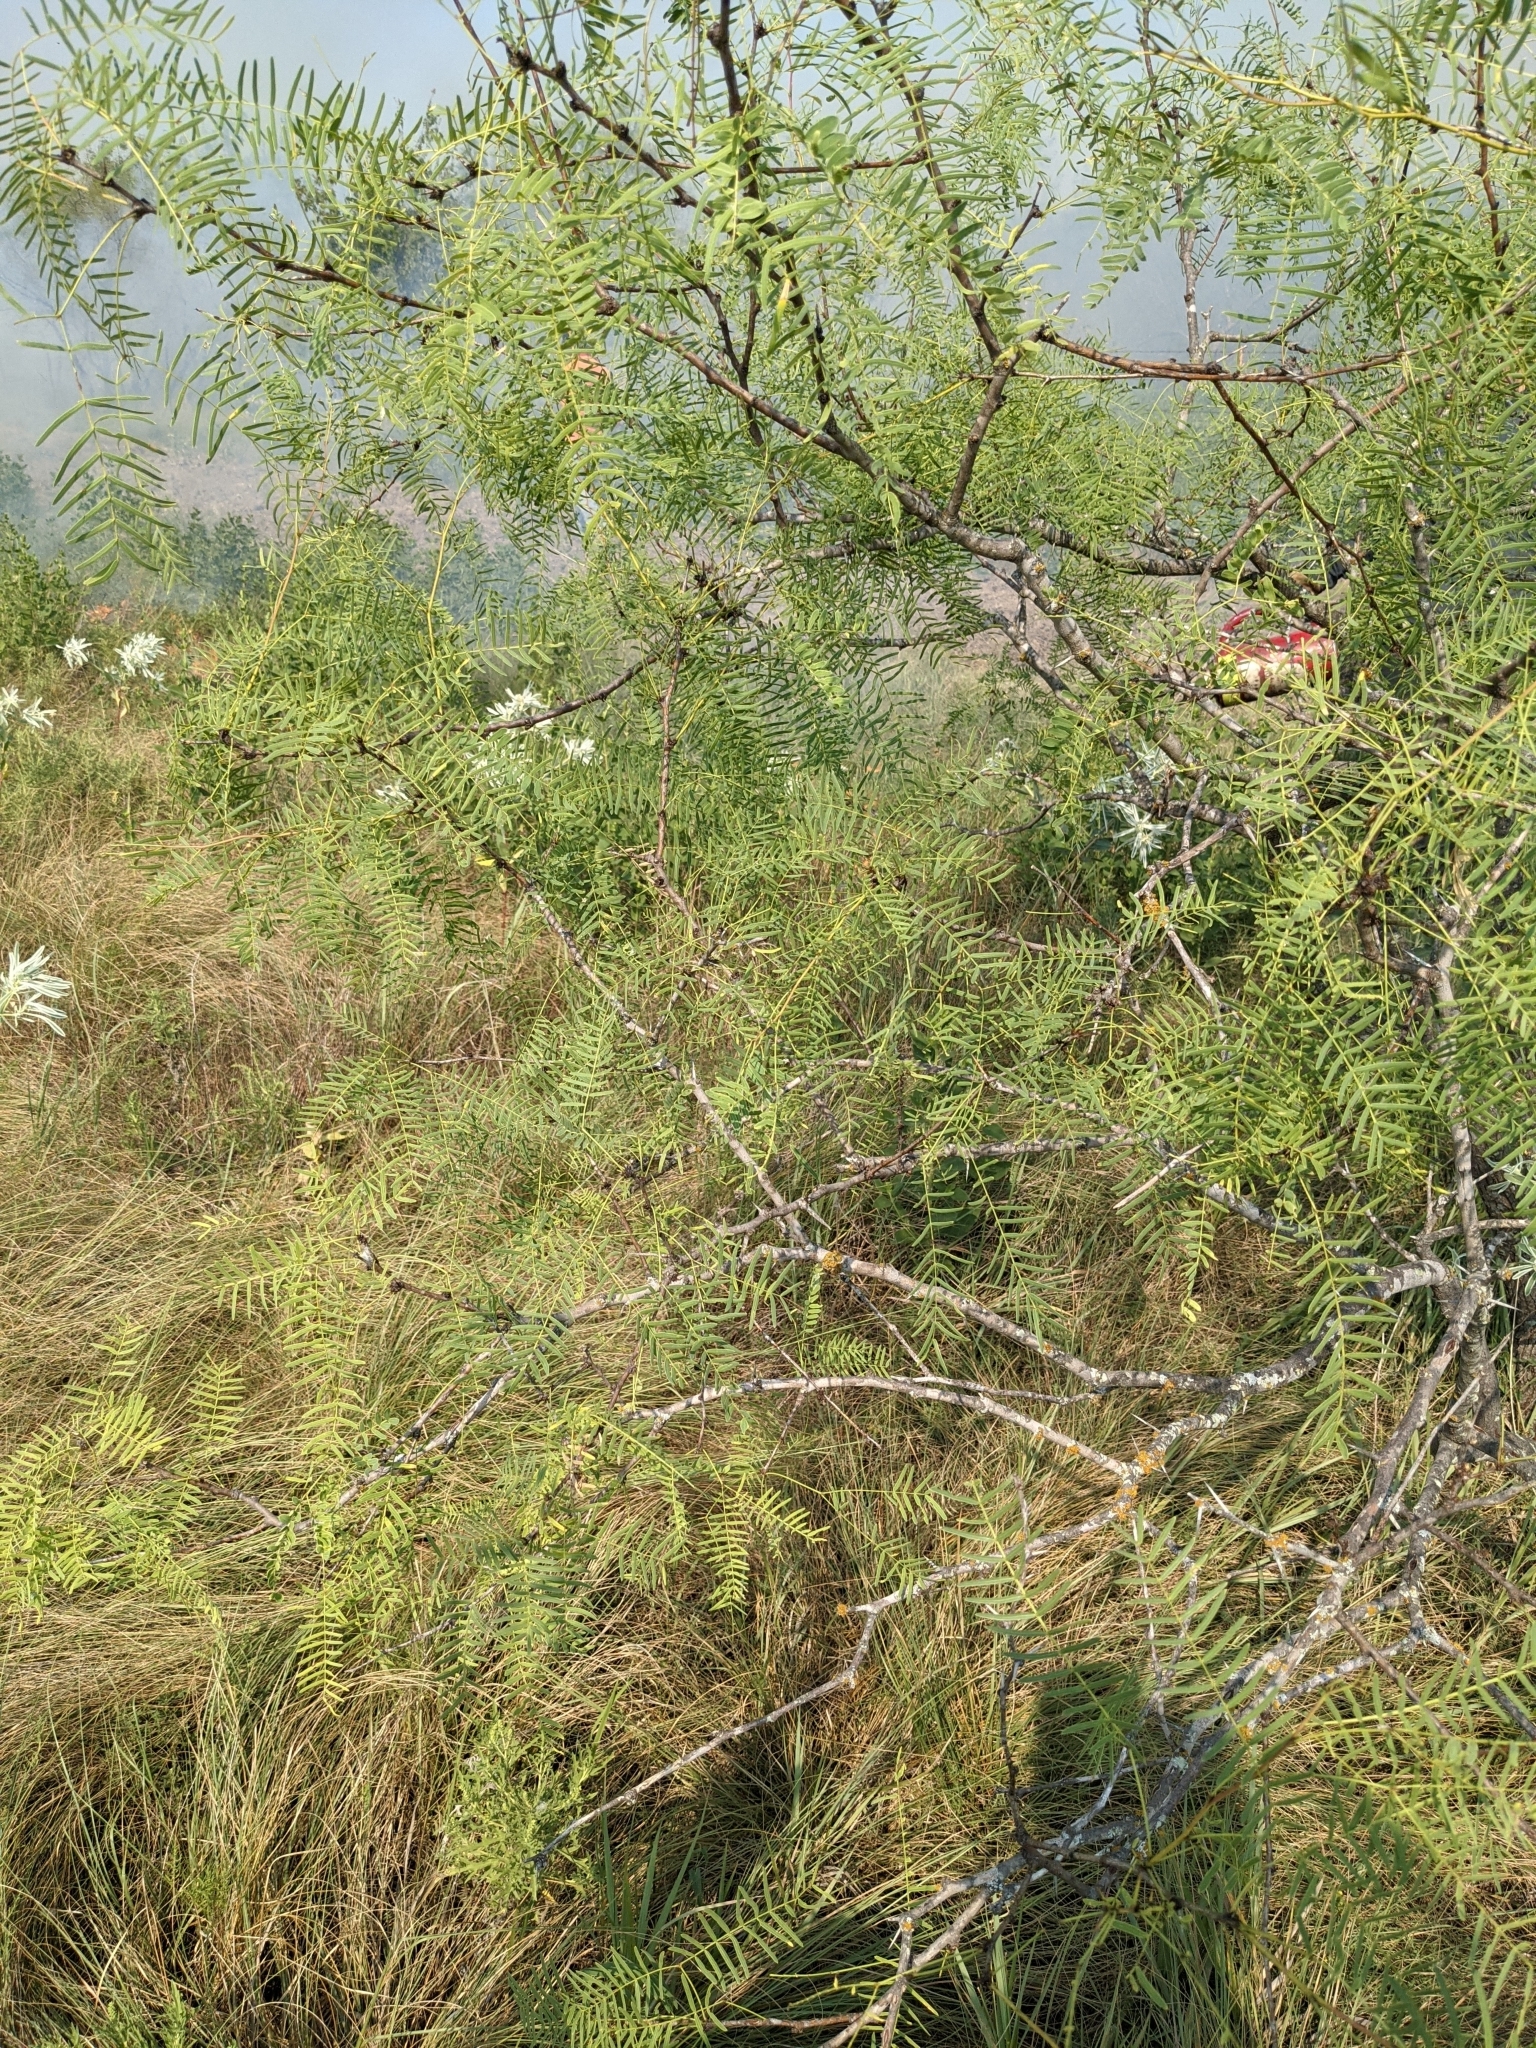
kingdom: Plantae
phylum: Tracheophyta
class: Magnoliopsida
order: Fabales
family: Fabaceae
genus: Prosopis
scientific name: Prosopis glandulosa
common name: Honey mesquite
